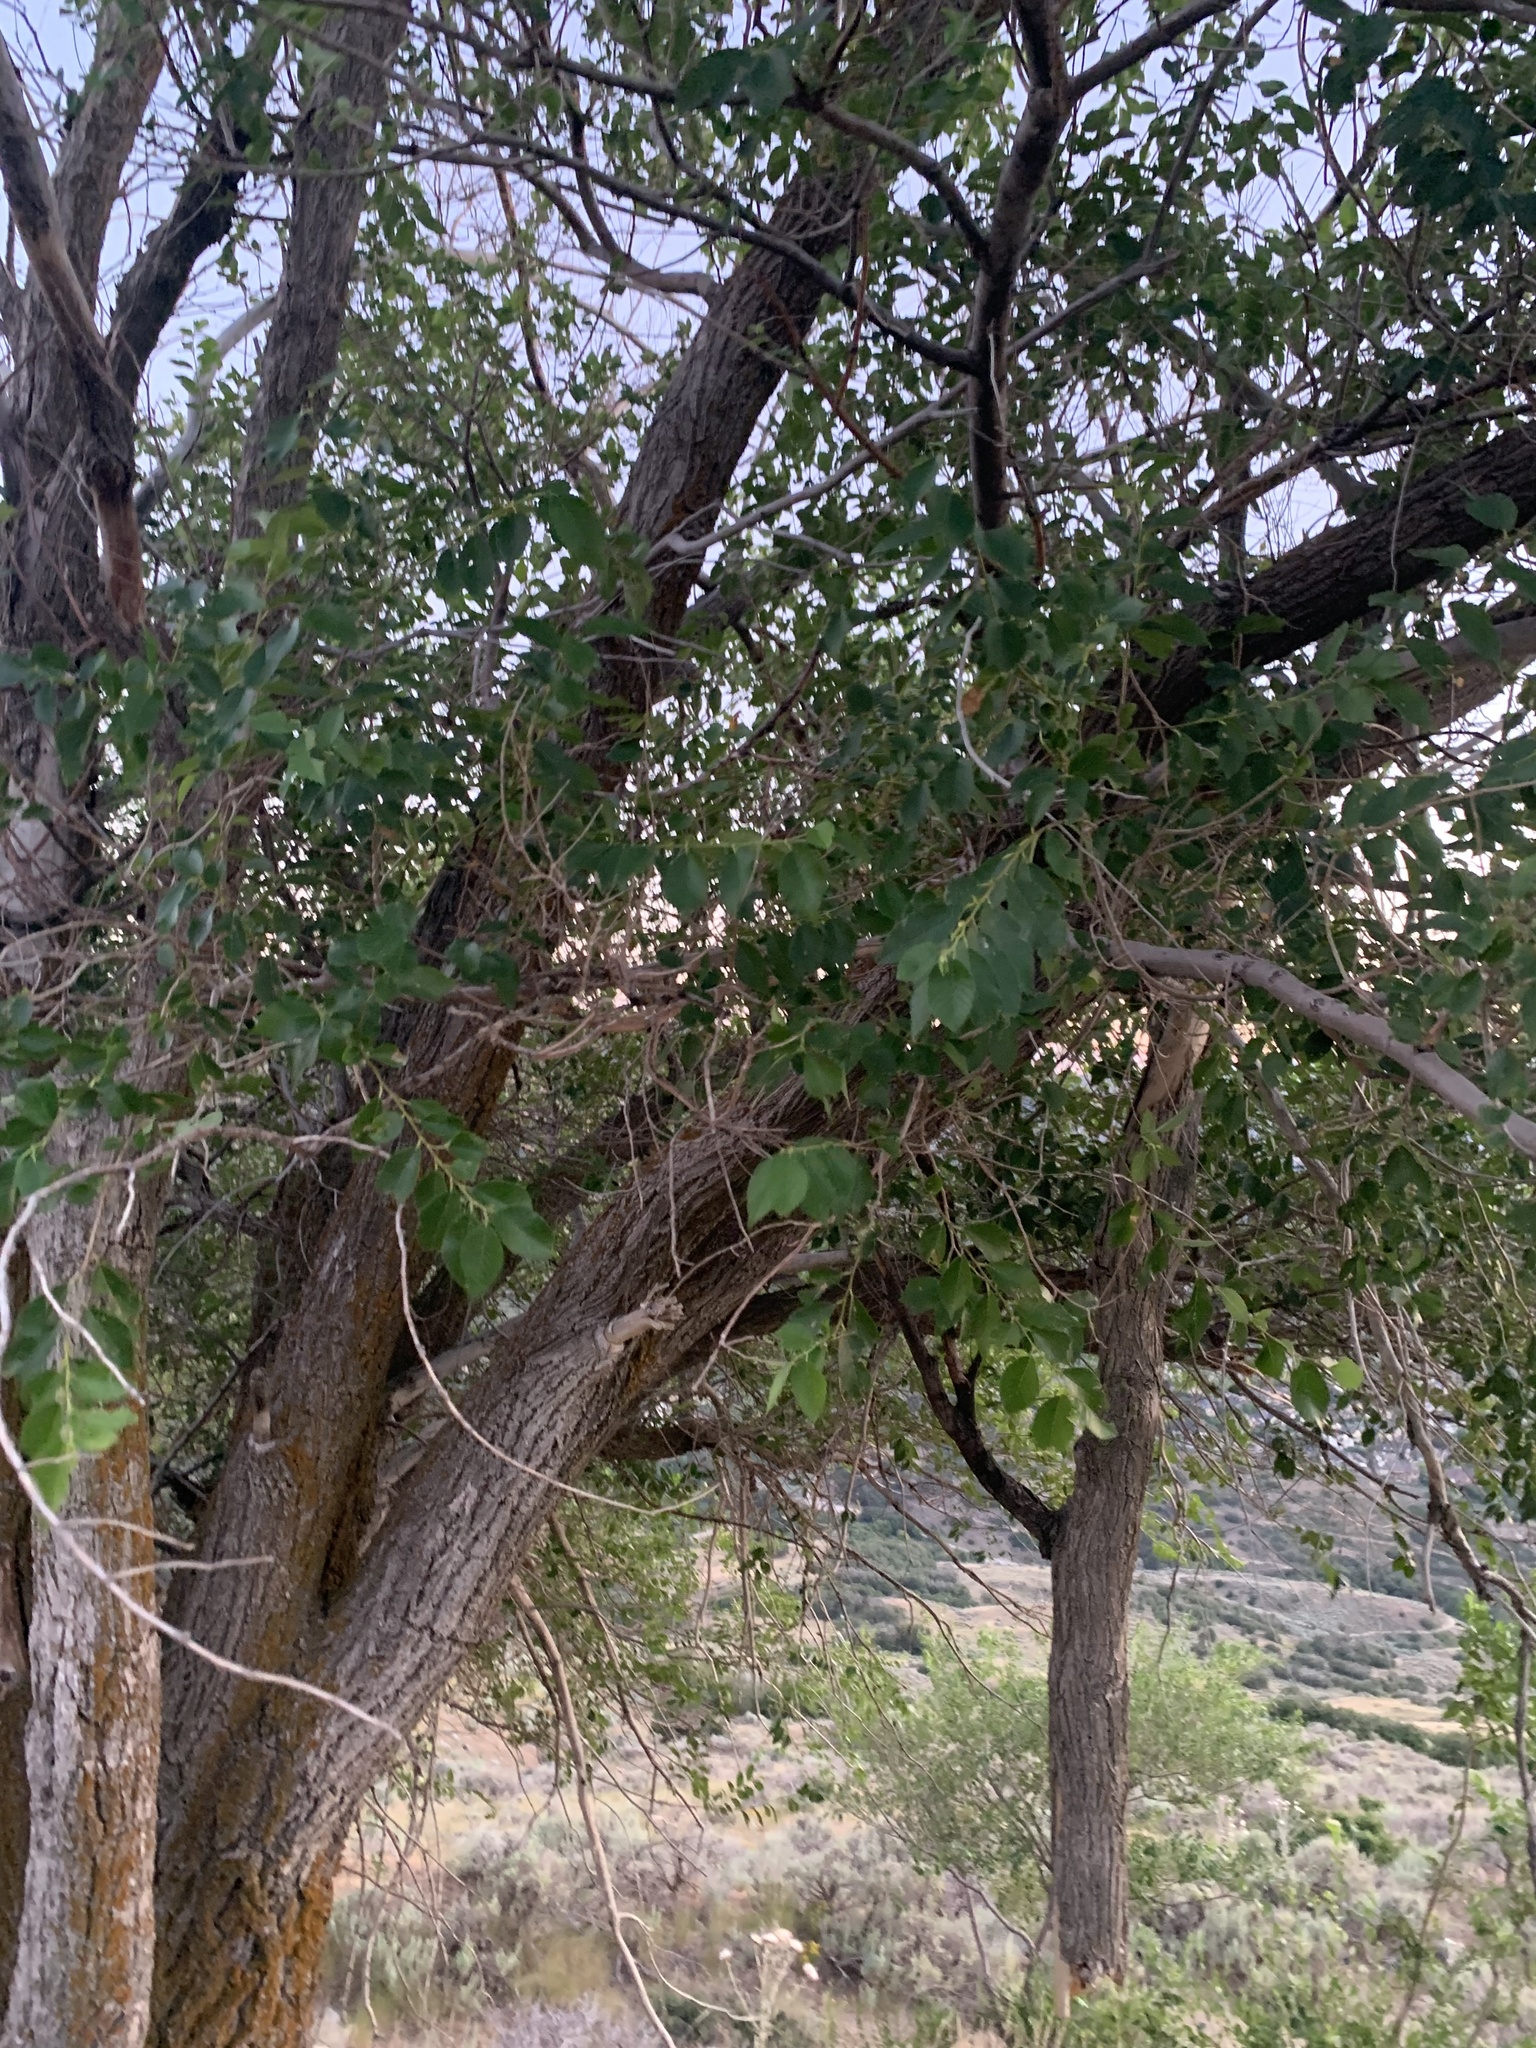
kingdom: Plantae
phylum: Tracheophyta
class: Magnoliopsida
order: Rosales
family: Ulmaceae
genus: Ulmus
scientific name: Ulmus pumila
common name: Siberian elm
